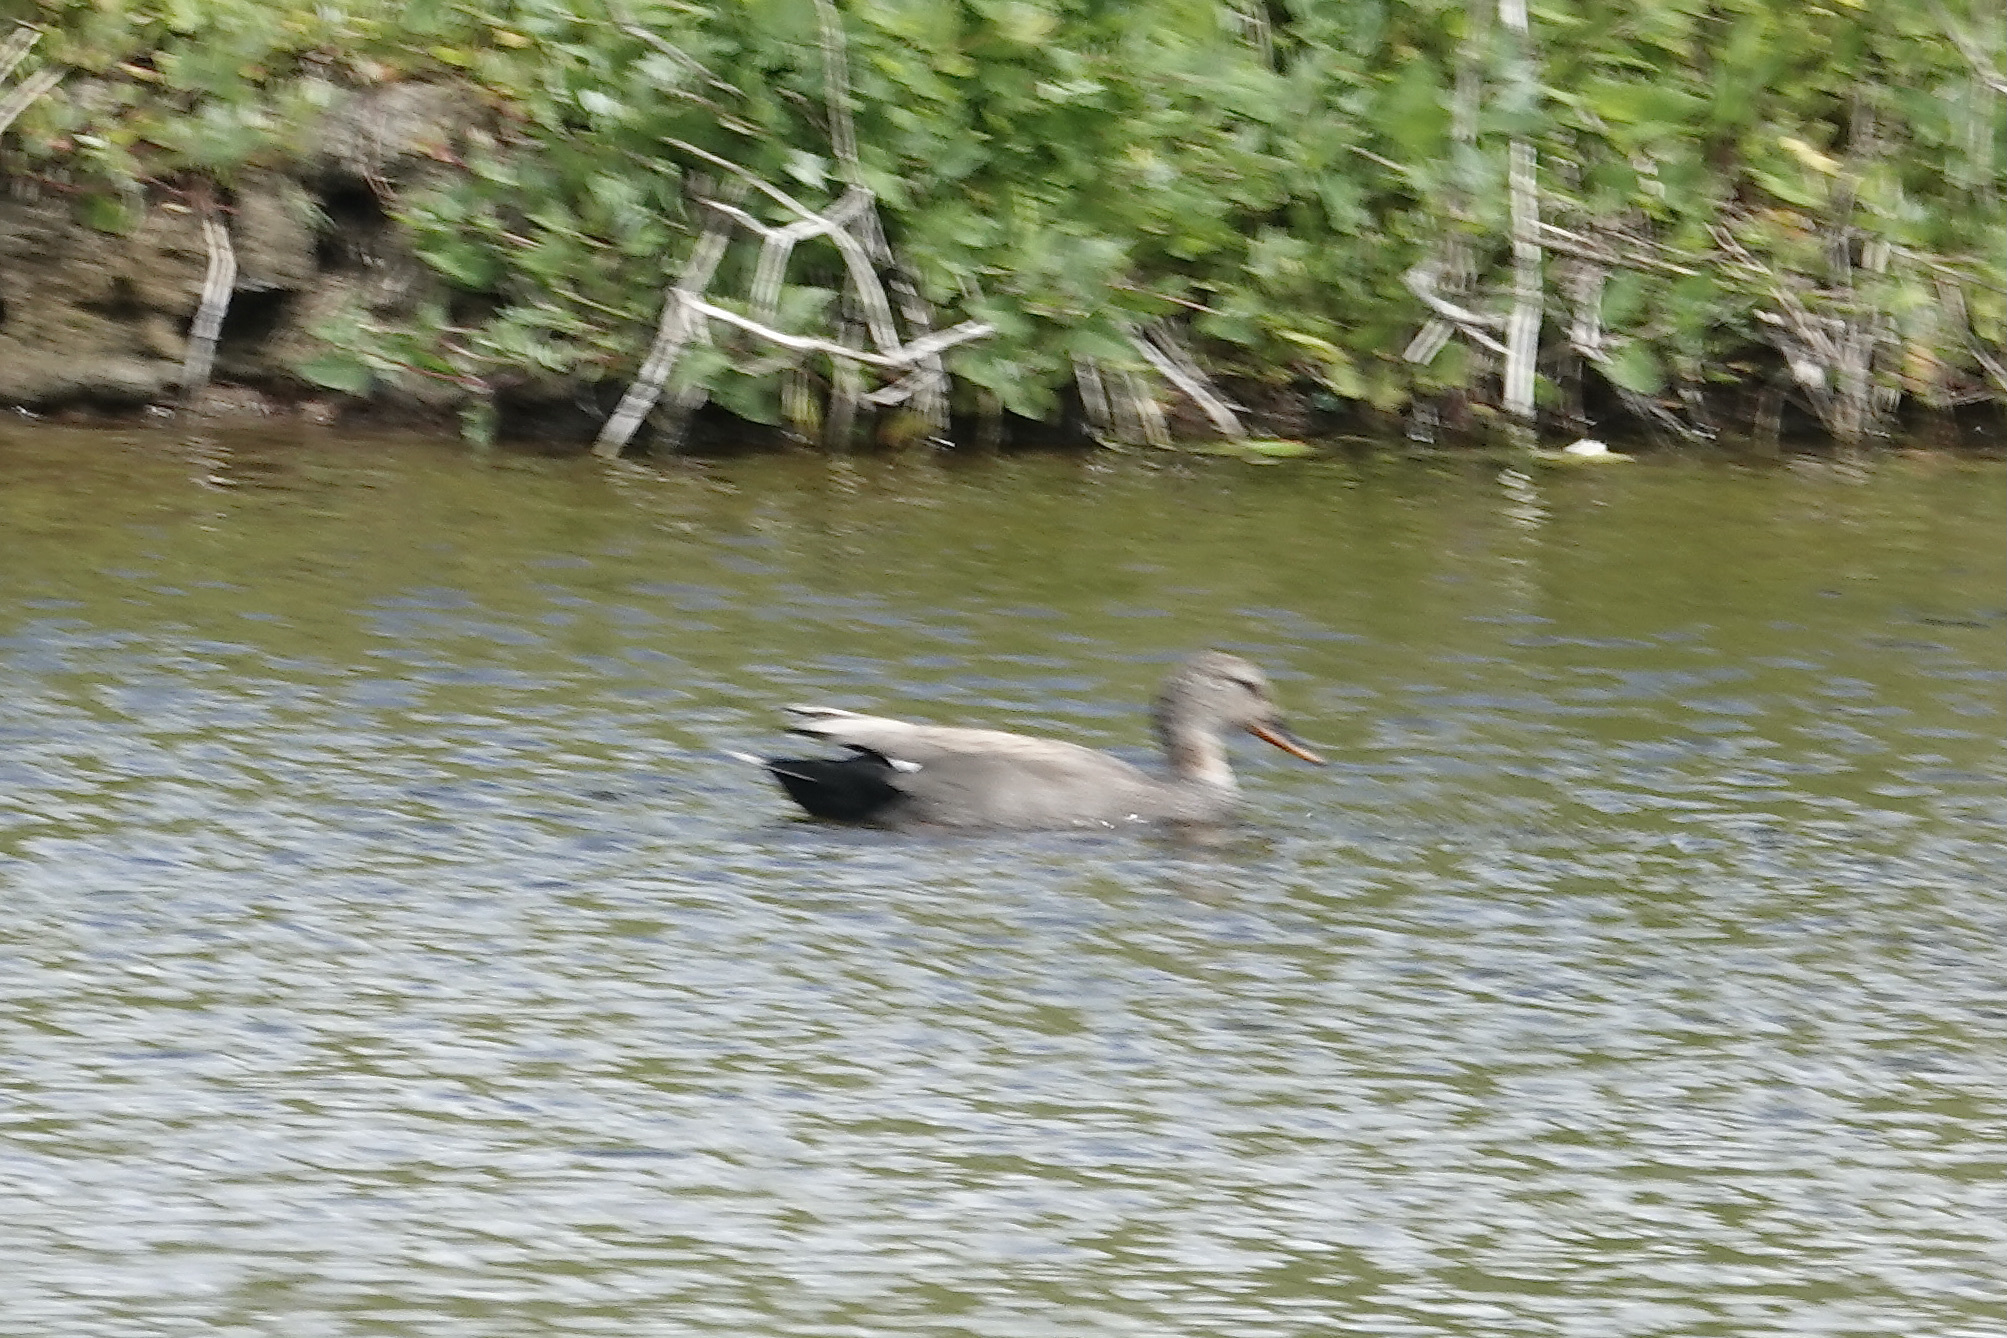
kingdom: Animalia
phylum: Chordata
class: Aves
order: Anseriformes
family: Anatidae
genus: Mareca
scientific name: Mareca strepera
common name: Gadwall
